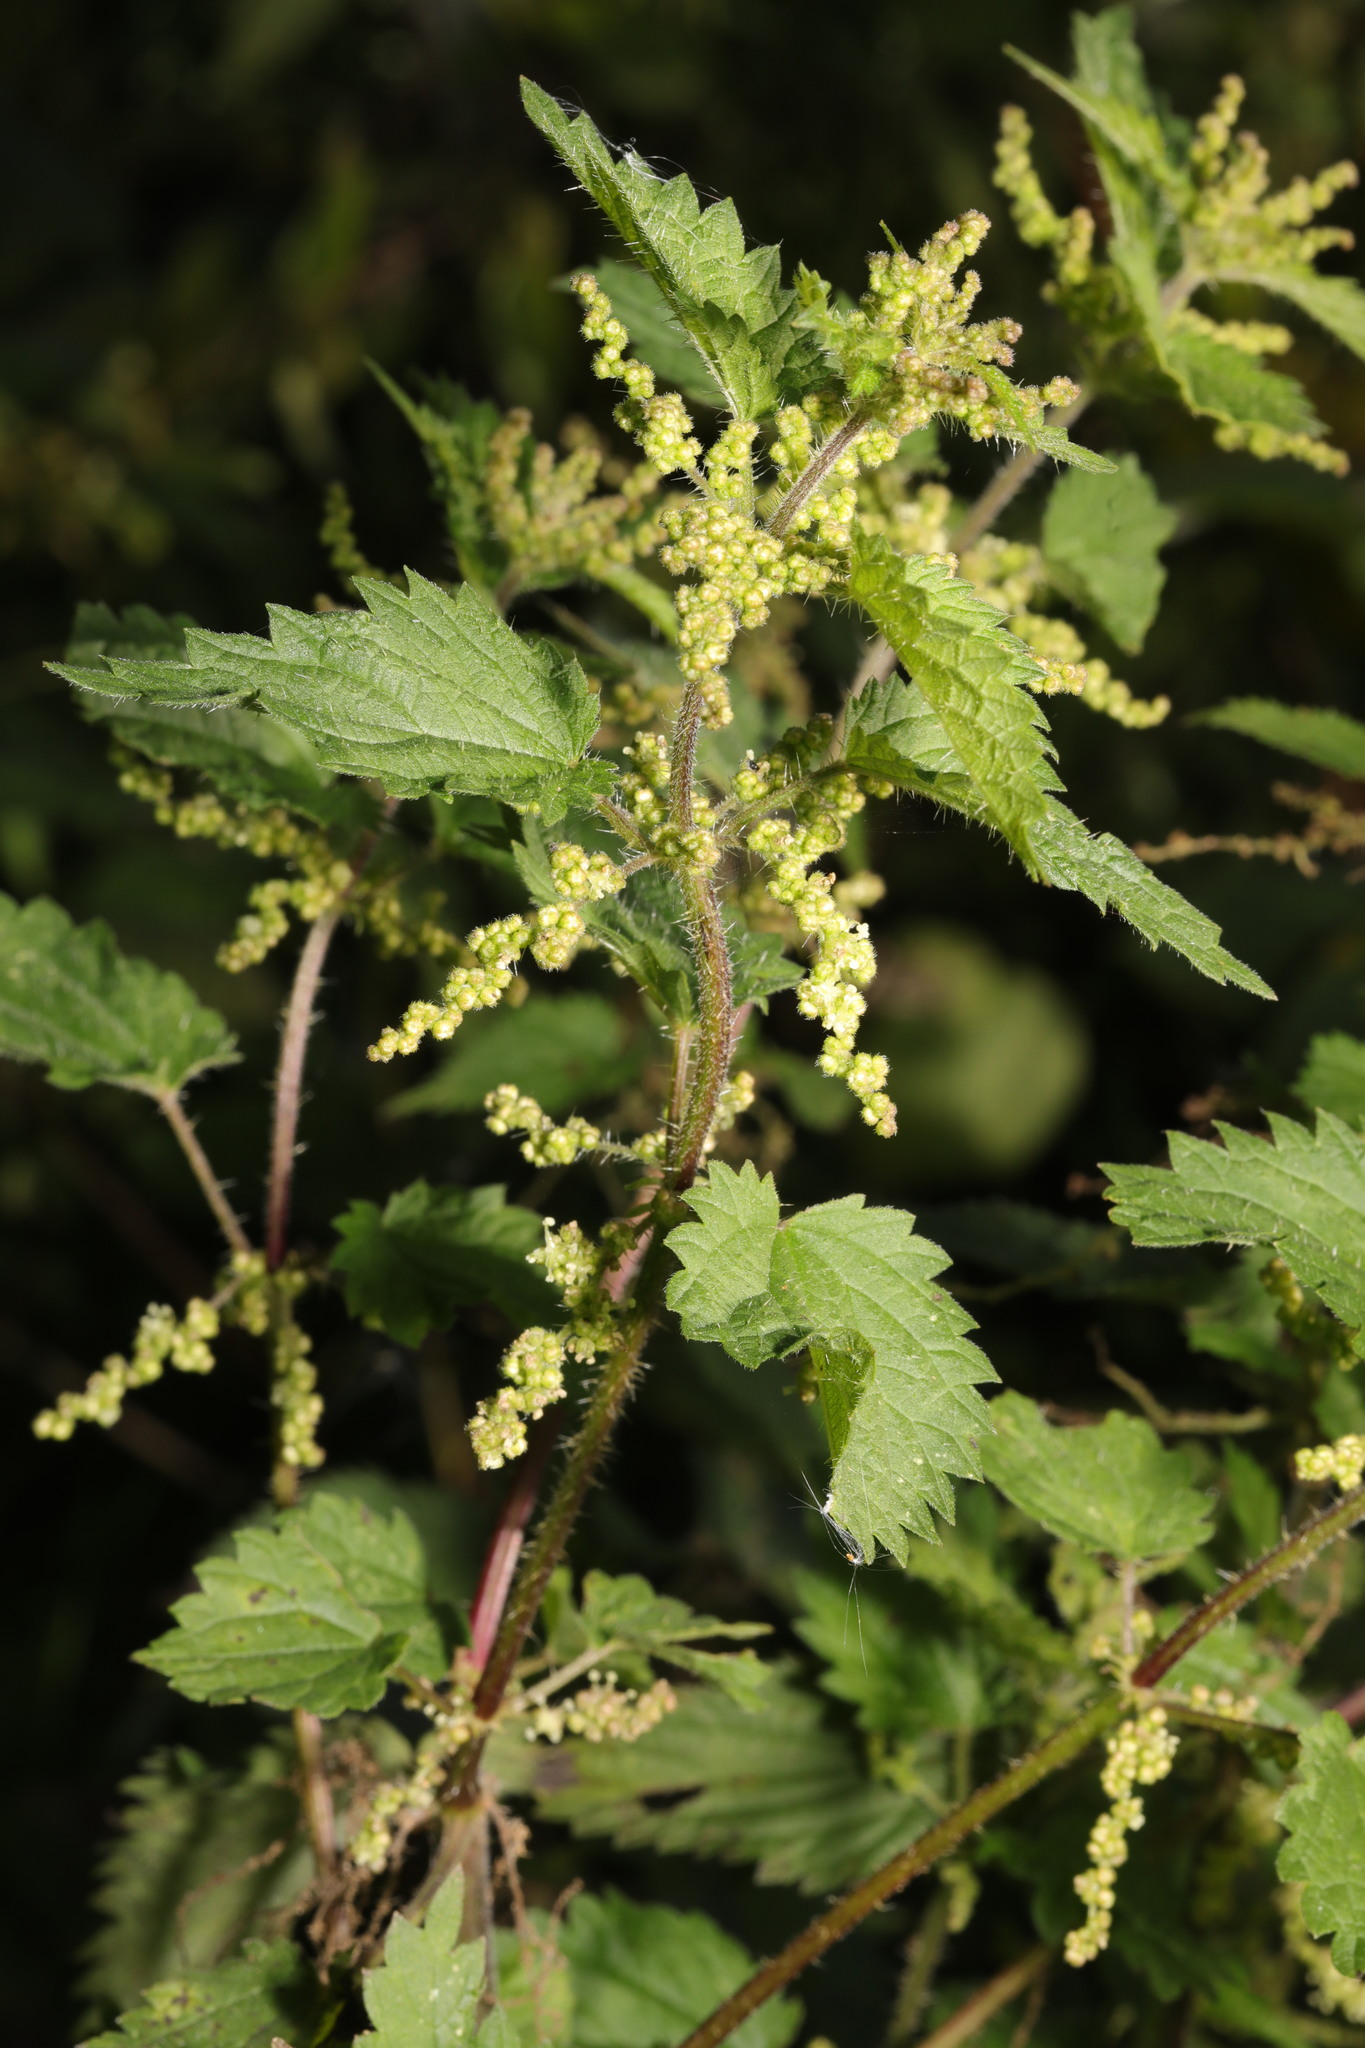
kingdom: Plantae
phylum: Tracheophyta
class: Magnoliopsida
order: Rosales
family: Urticaceae
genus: Urtica
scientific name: Urtica dioica
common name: Common nettle
